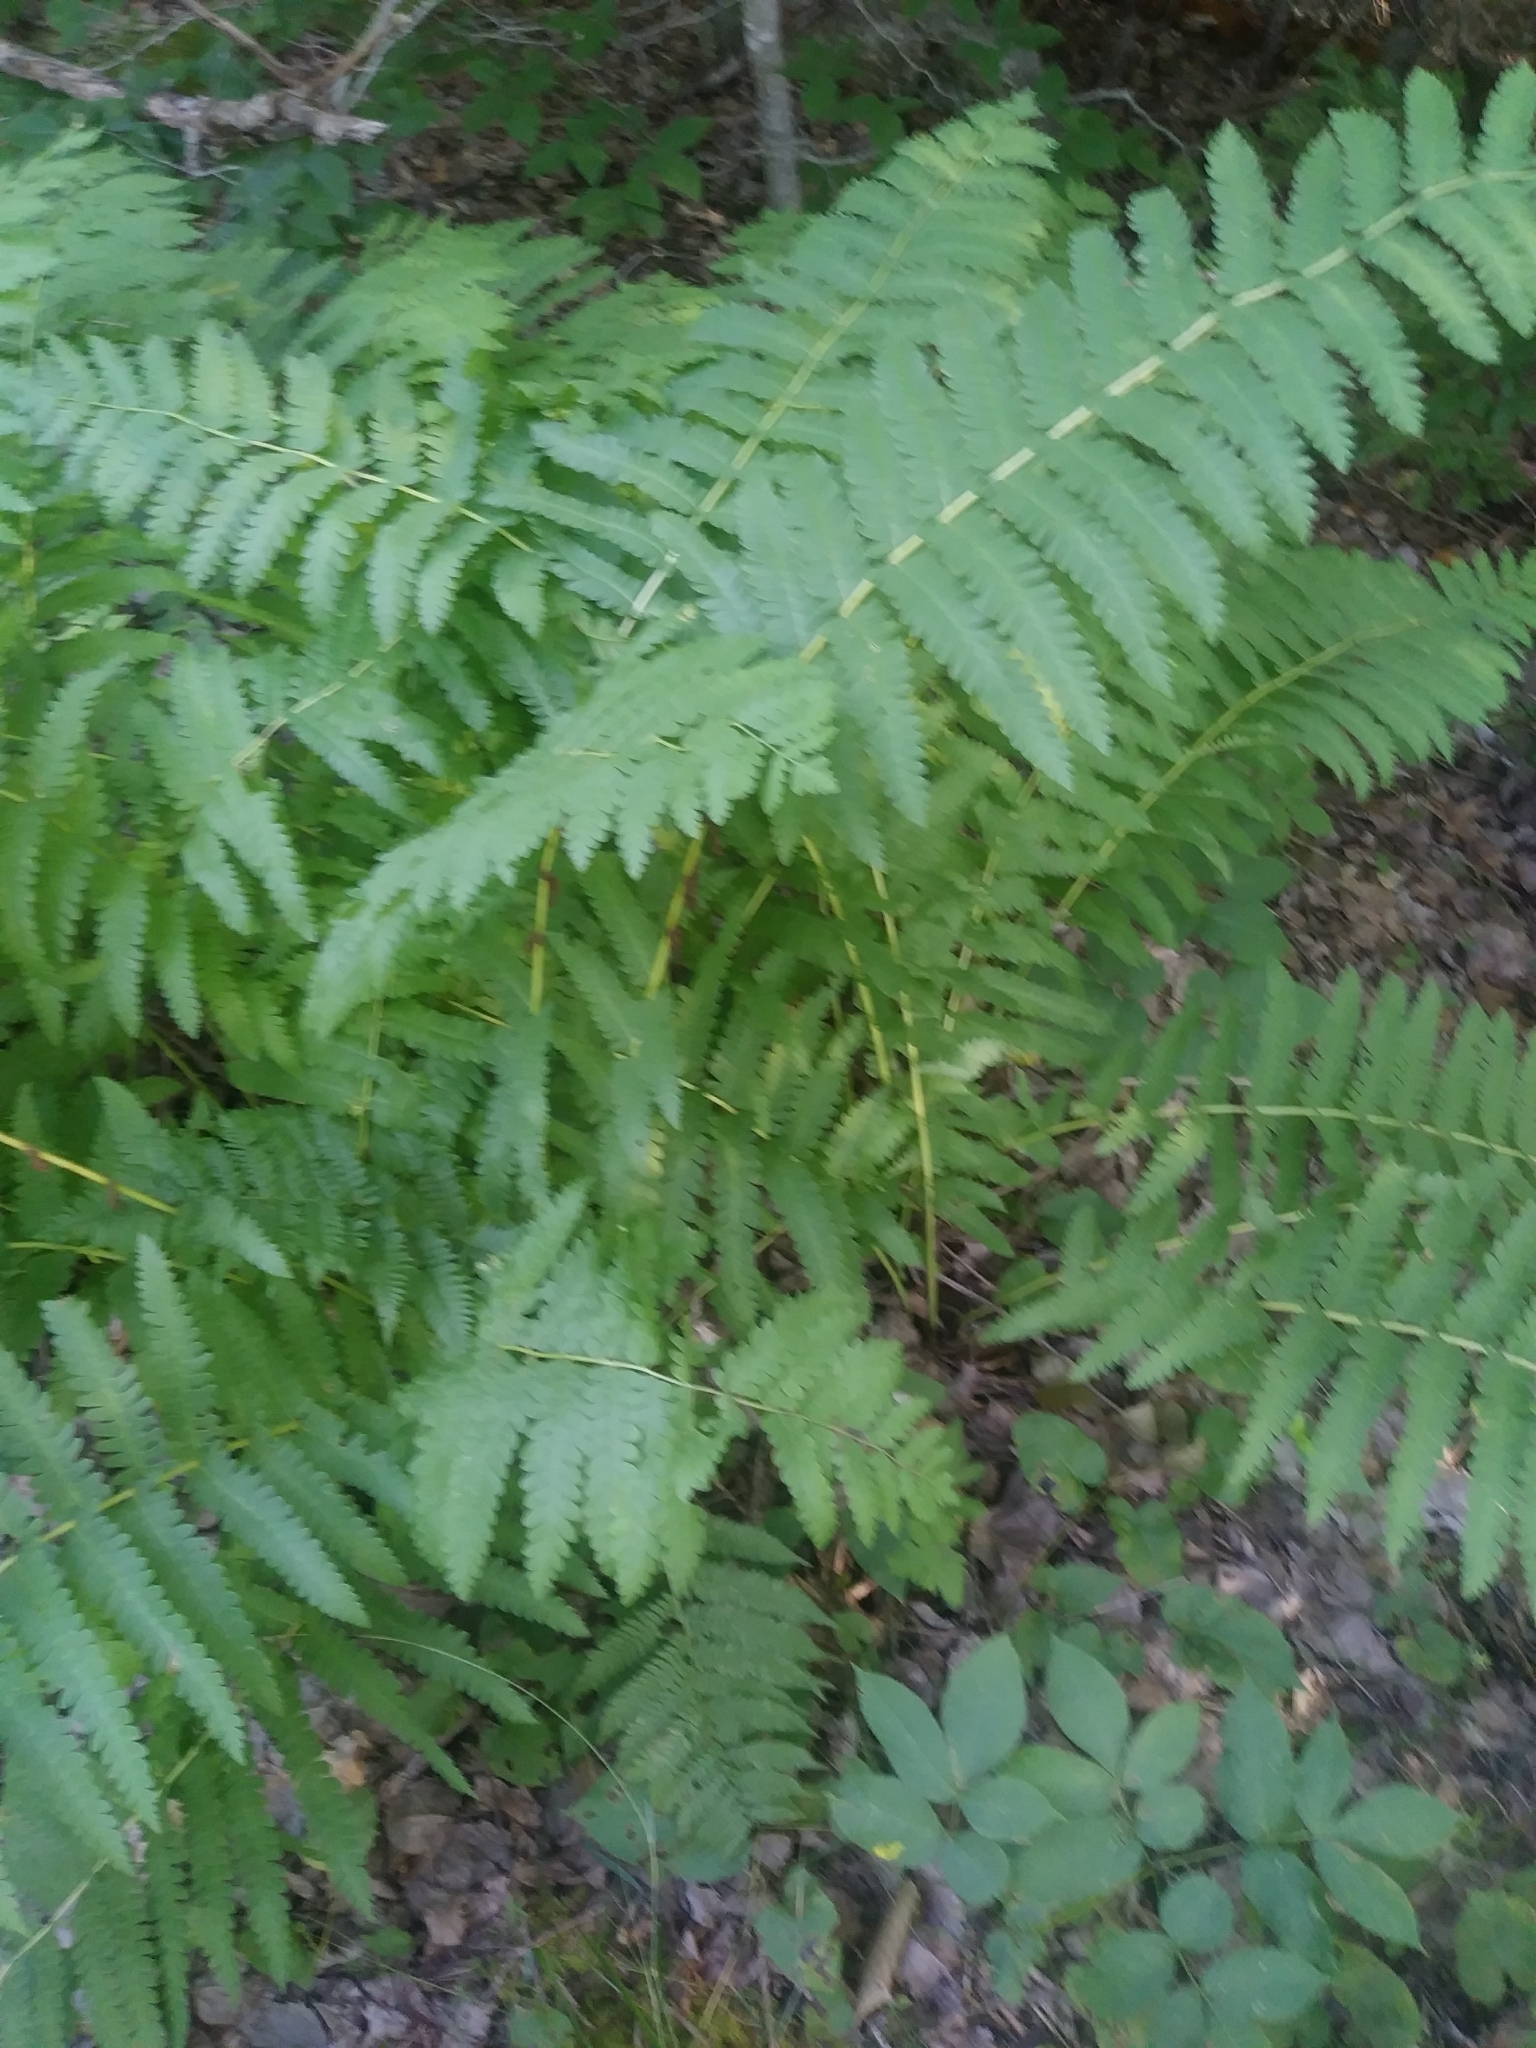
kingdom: Plantae
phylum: Tracheophyta
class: Polypodiopsida
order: Osmundales
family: Osmundaceae
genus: Claytosmunda
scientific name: Claytosmunda claytoniana
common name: Clayton's fern
